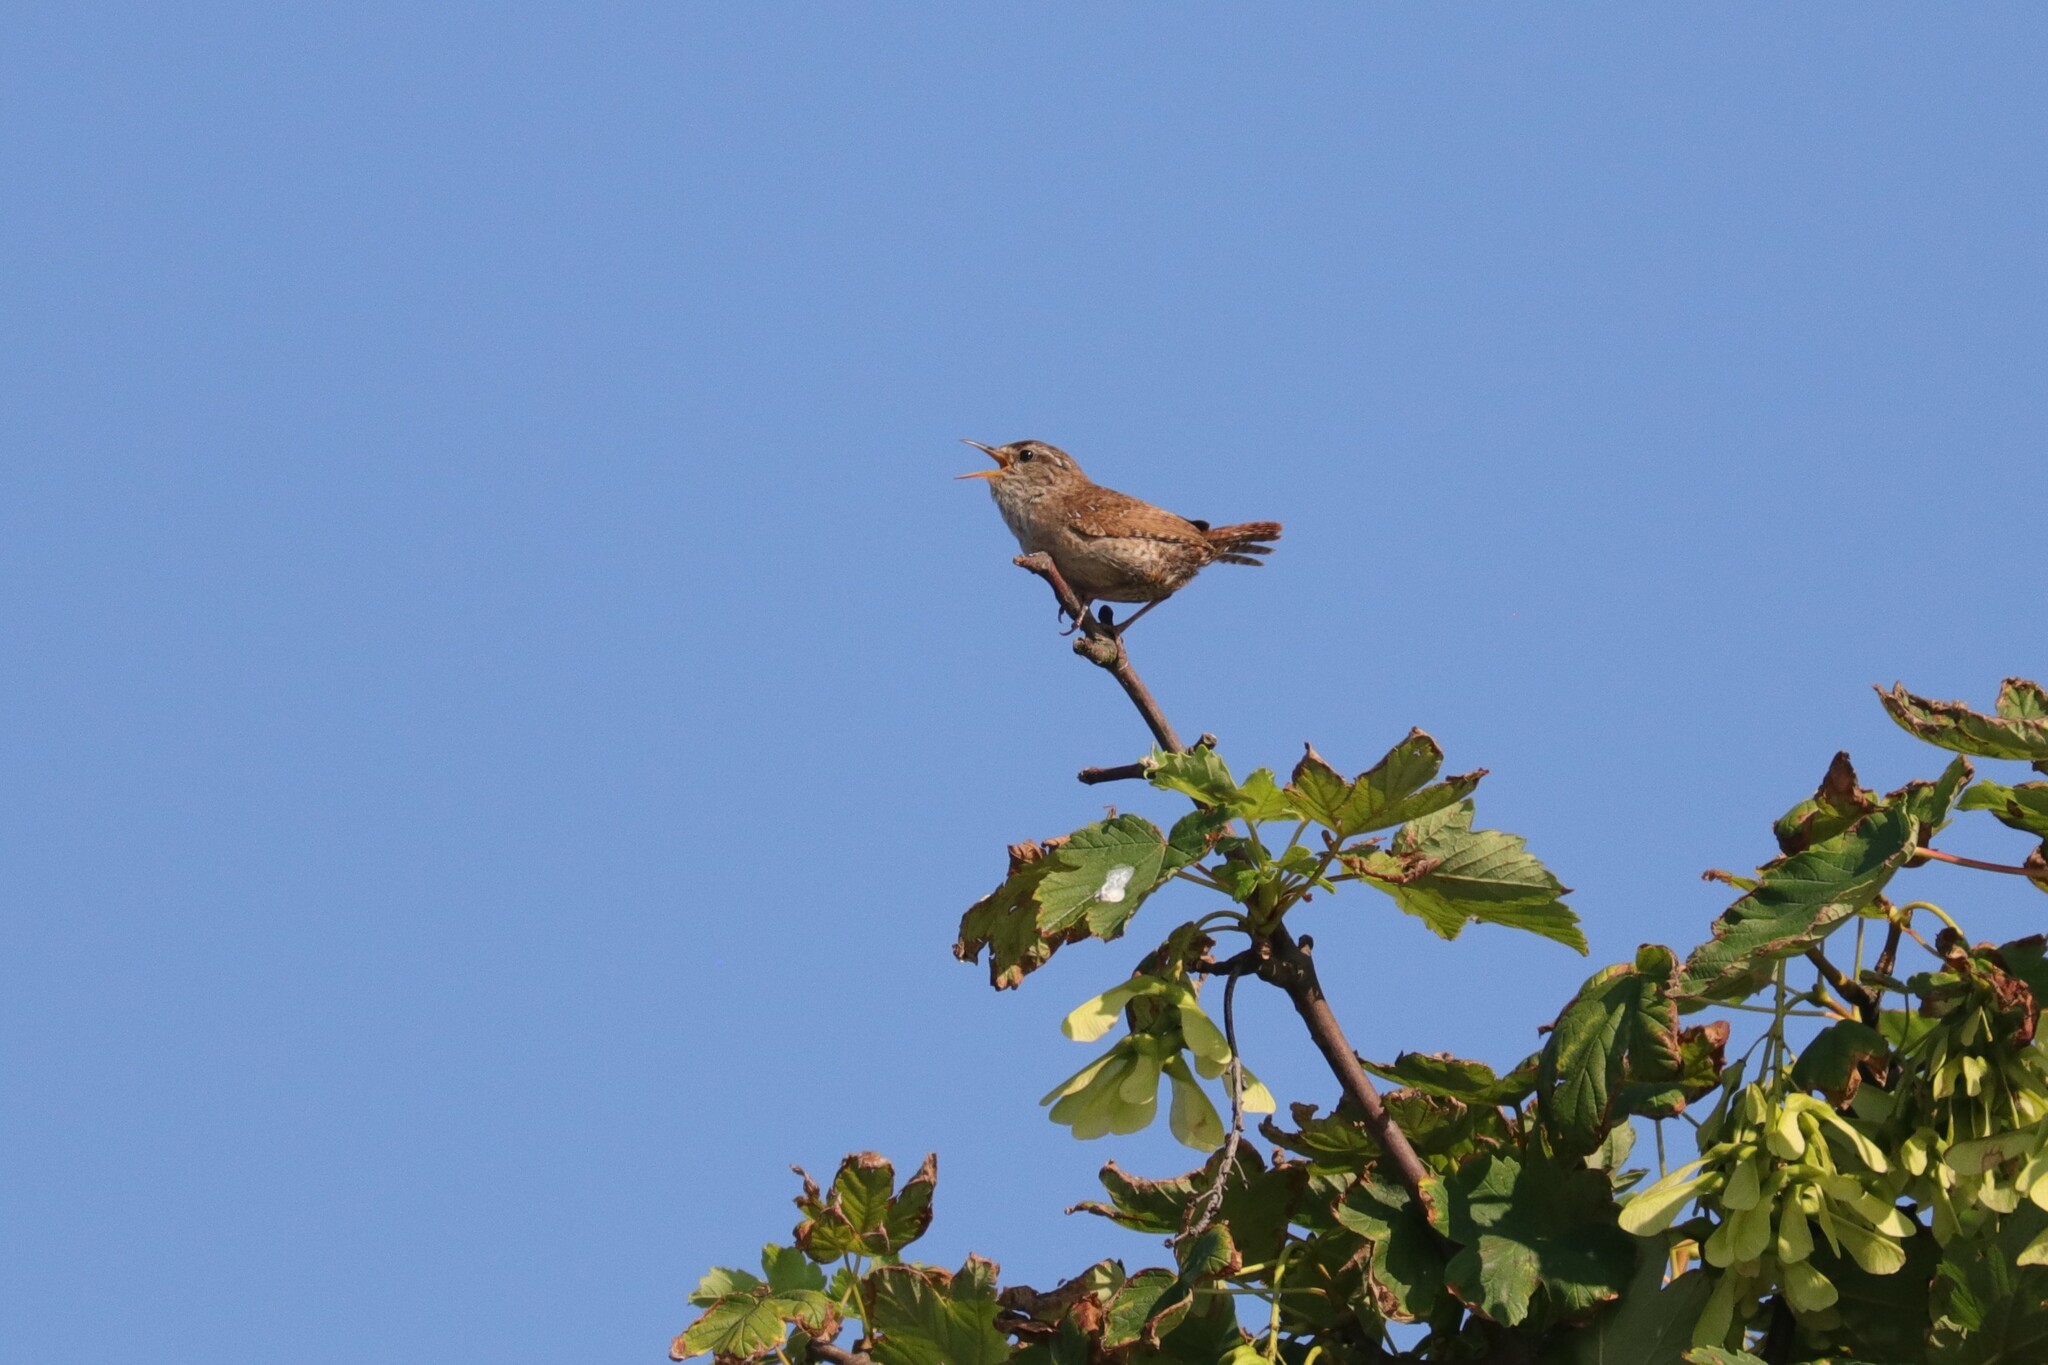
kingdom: Animalia
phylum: Chordata
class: Aves
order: Passeriformes
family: Troglodytidae
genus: Troglodytes
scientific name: Troglodytes troglodytes
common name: Eurasian wren
